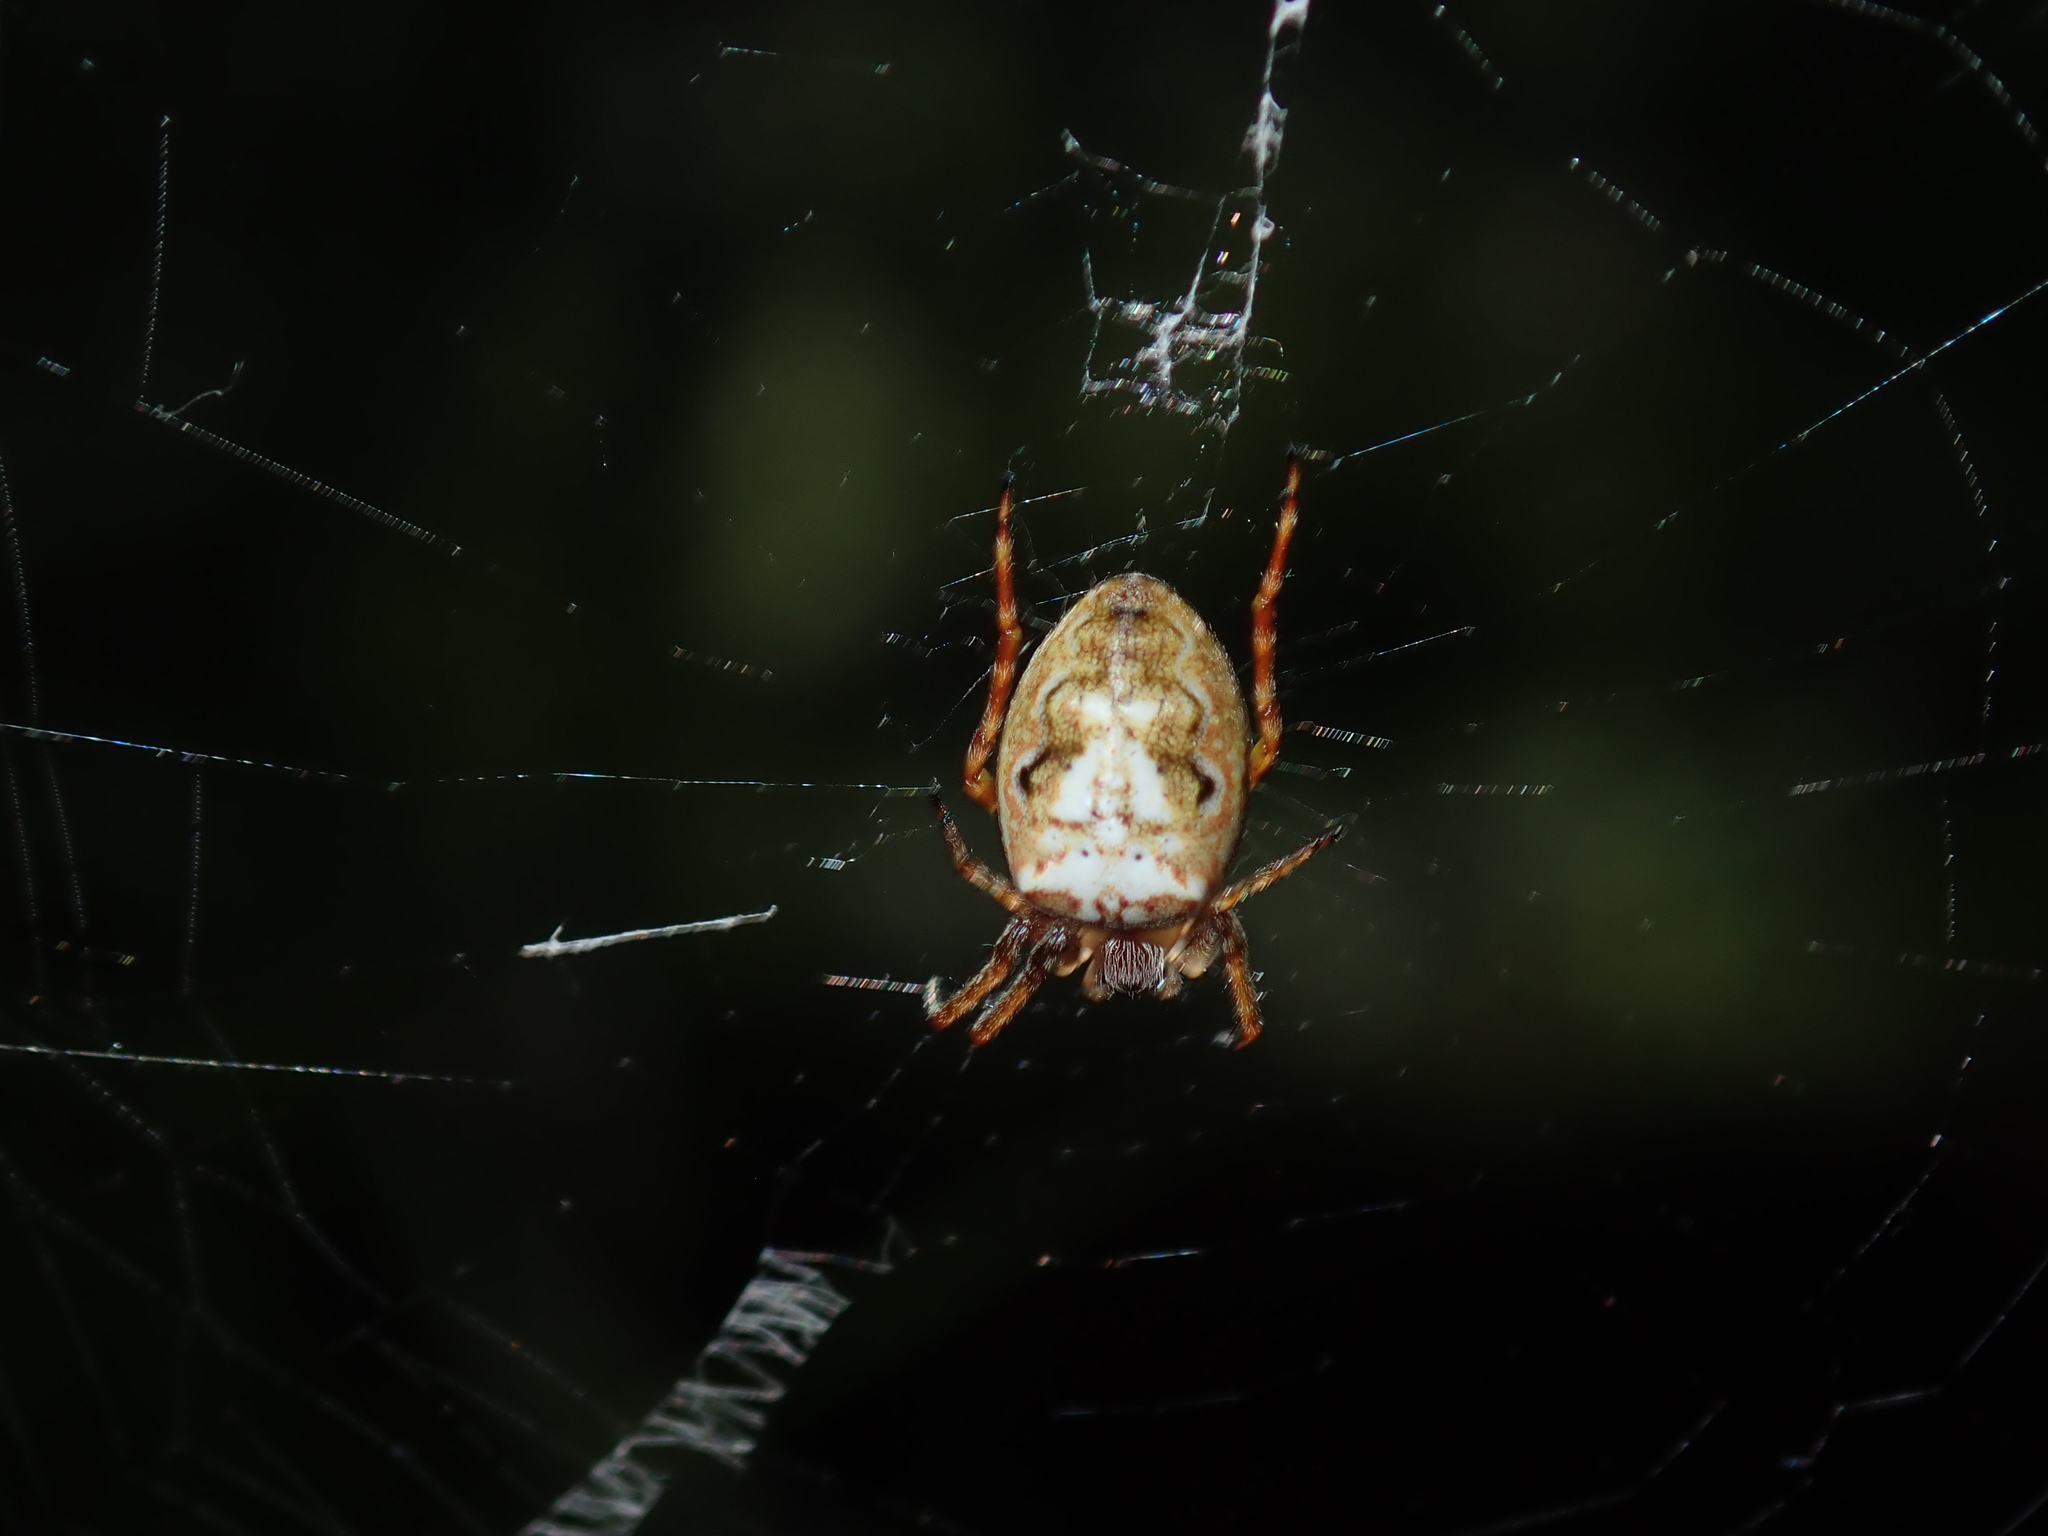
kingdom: Animalia
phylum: Arthropoda
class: Arachnida
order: Araneae
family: Araneidae
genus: Plebs
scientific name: Plebs eburnus
